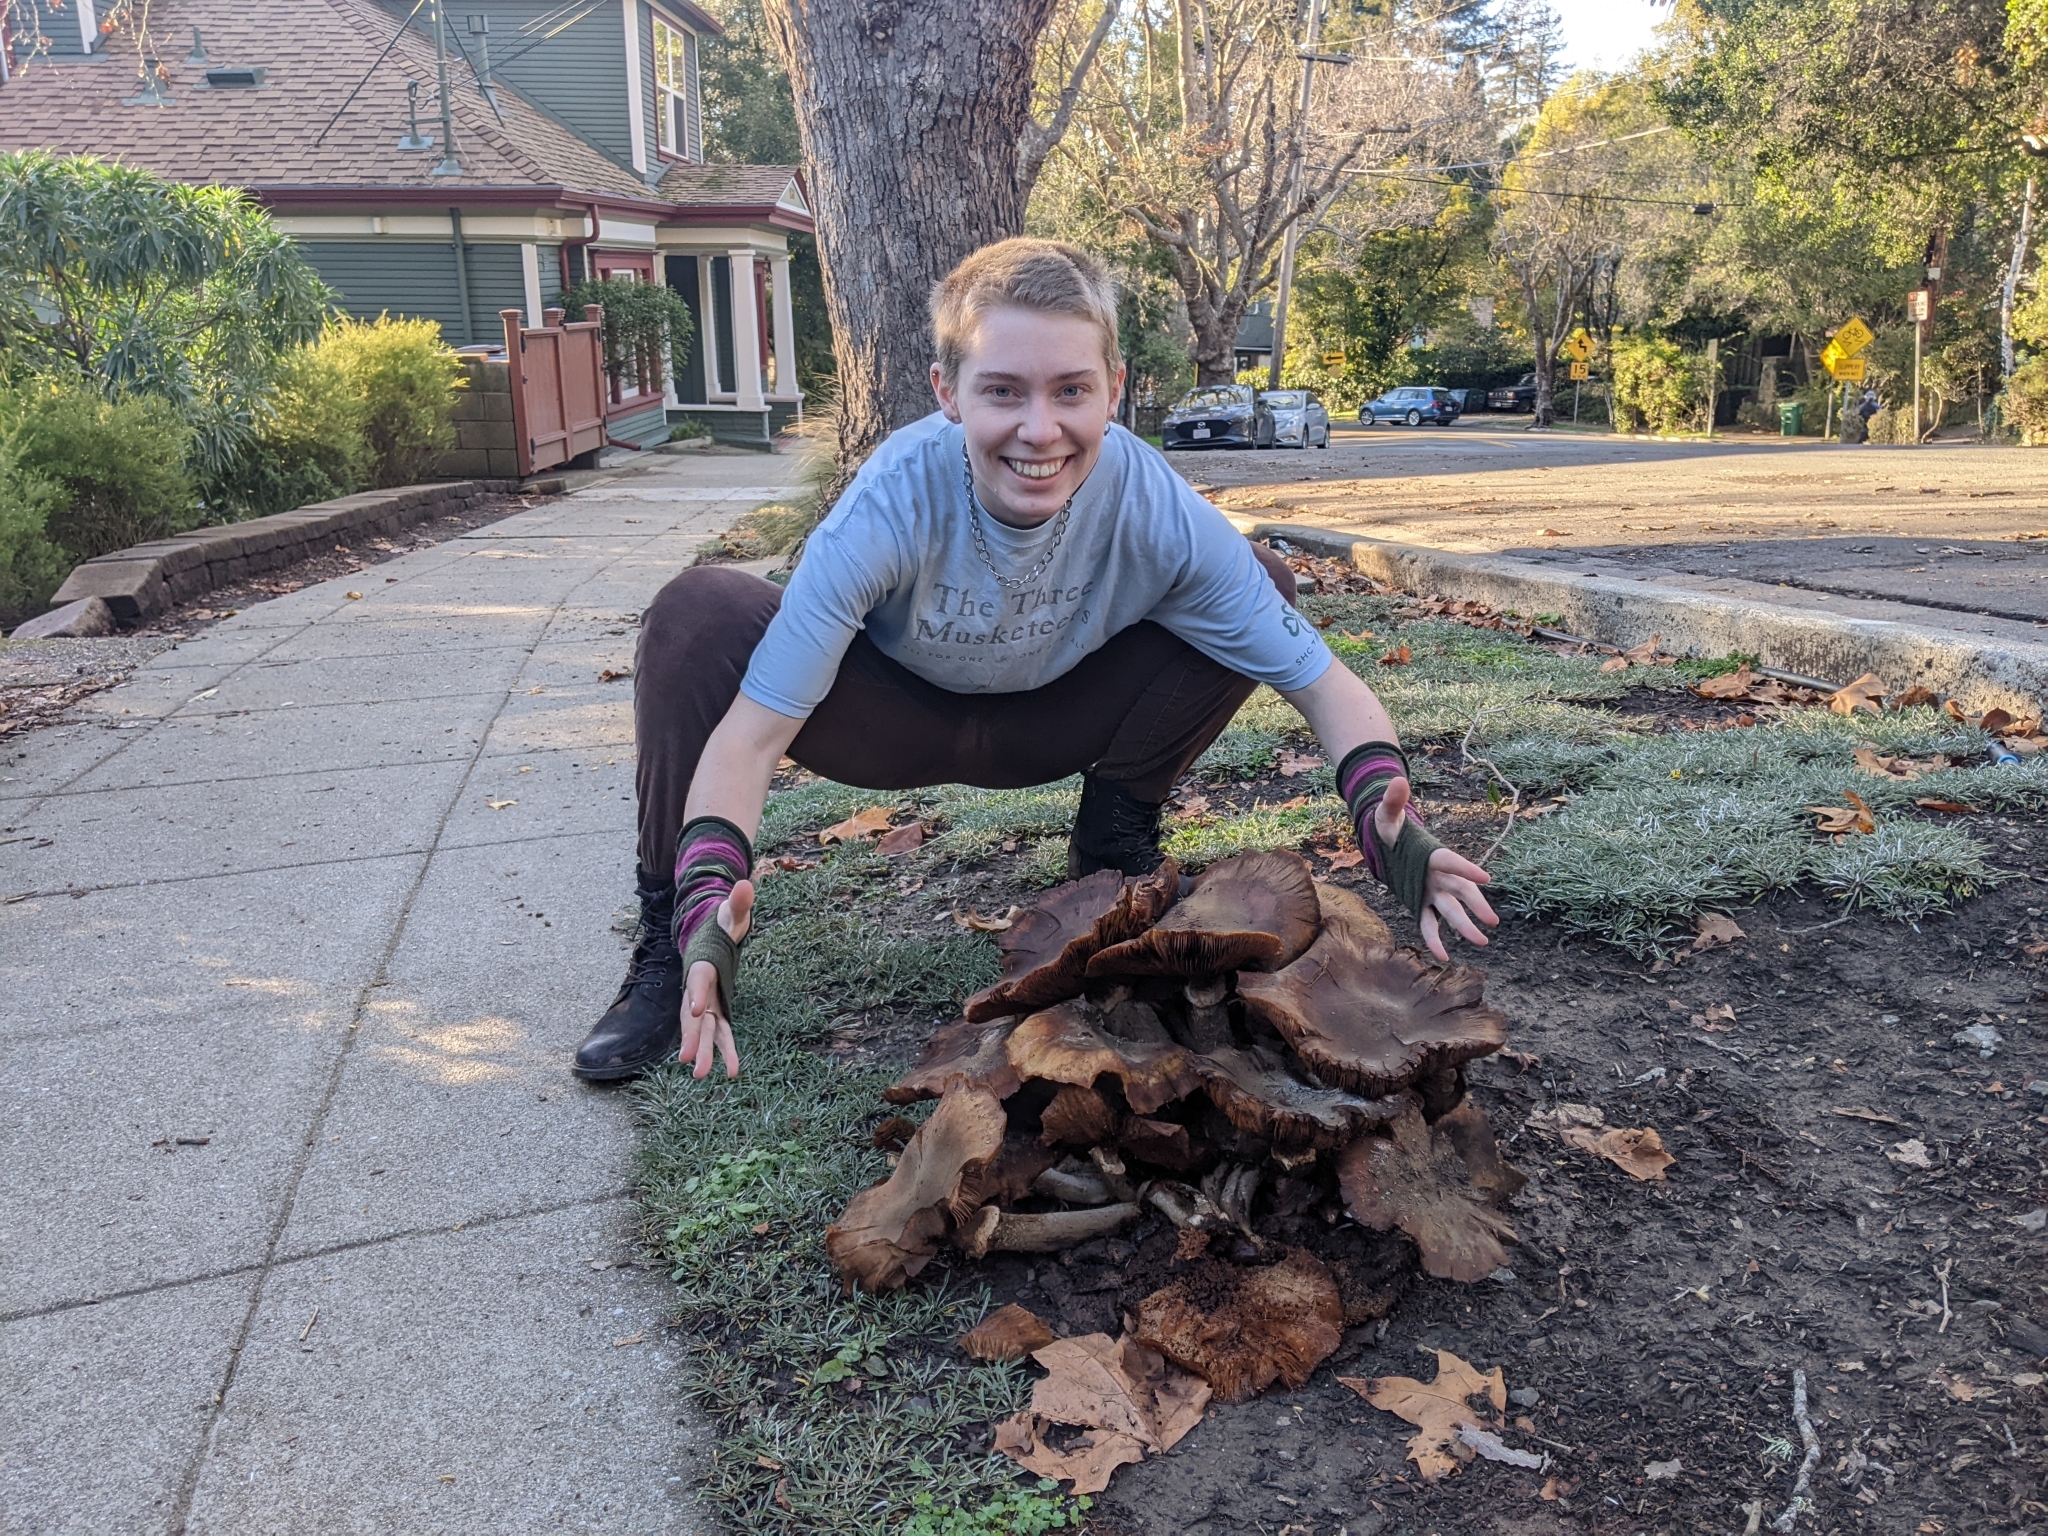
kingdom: Fungi
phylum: Basidiomycota
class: Agaricomycetes
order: Agaricales
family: Physalacriaceae
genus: Armillaria
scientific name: Armillaria mellea
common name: Honey fungus
